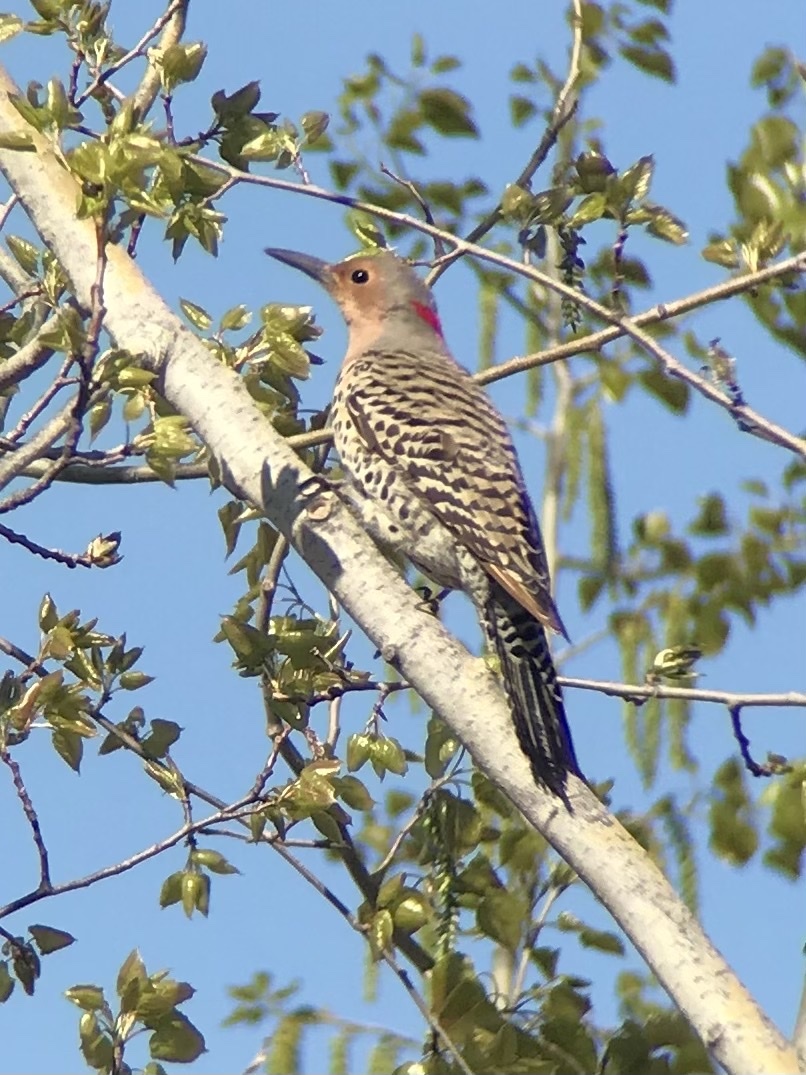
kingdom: Animalia
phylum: Chordata
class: Aves
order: Piciformes
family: Picidae
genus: Colaptes
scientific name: Colaptes auratus
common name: Northern flicker
